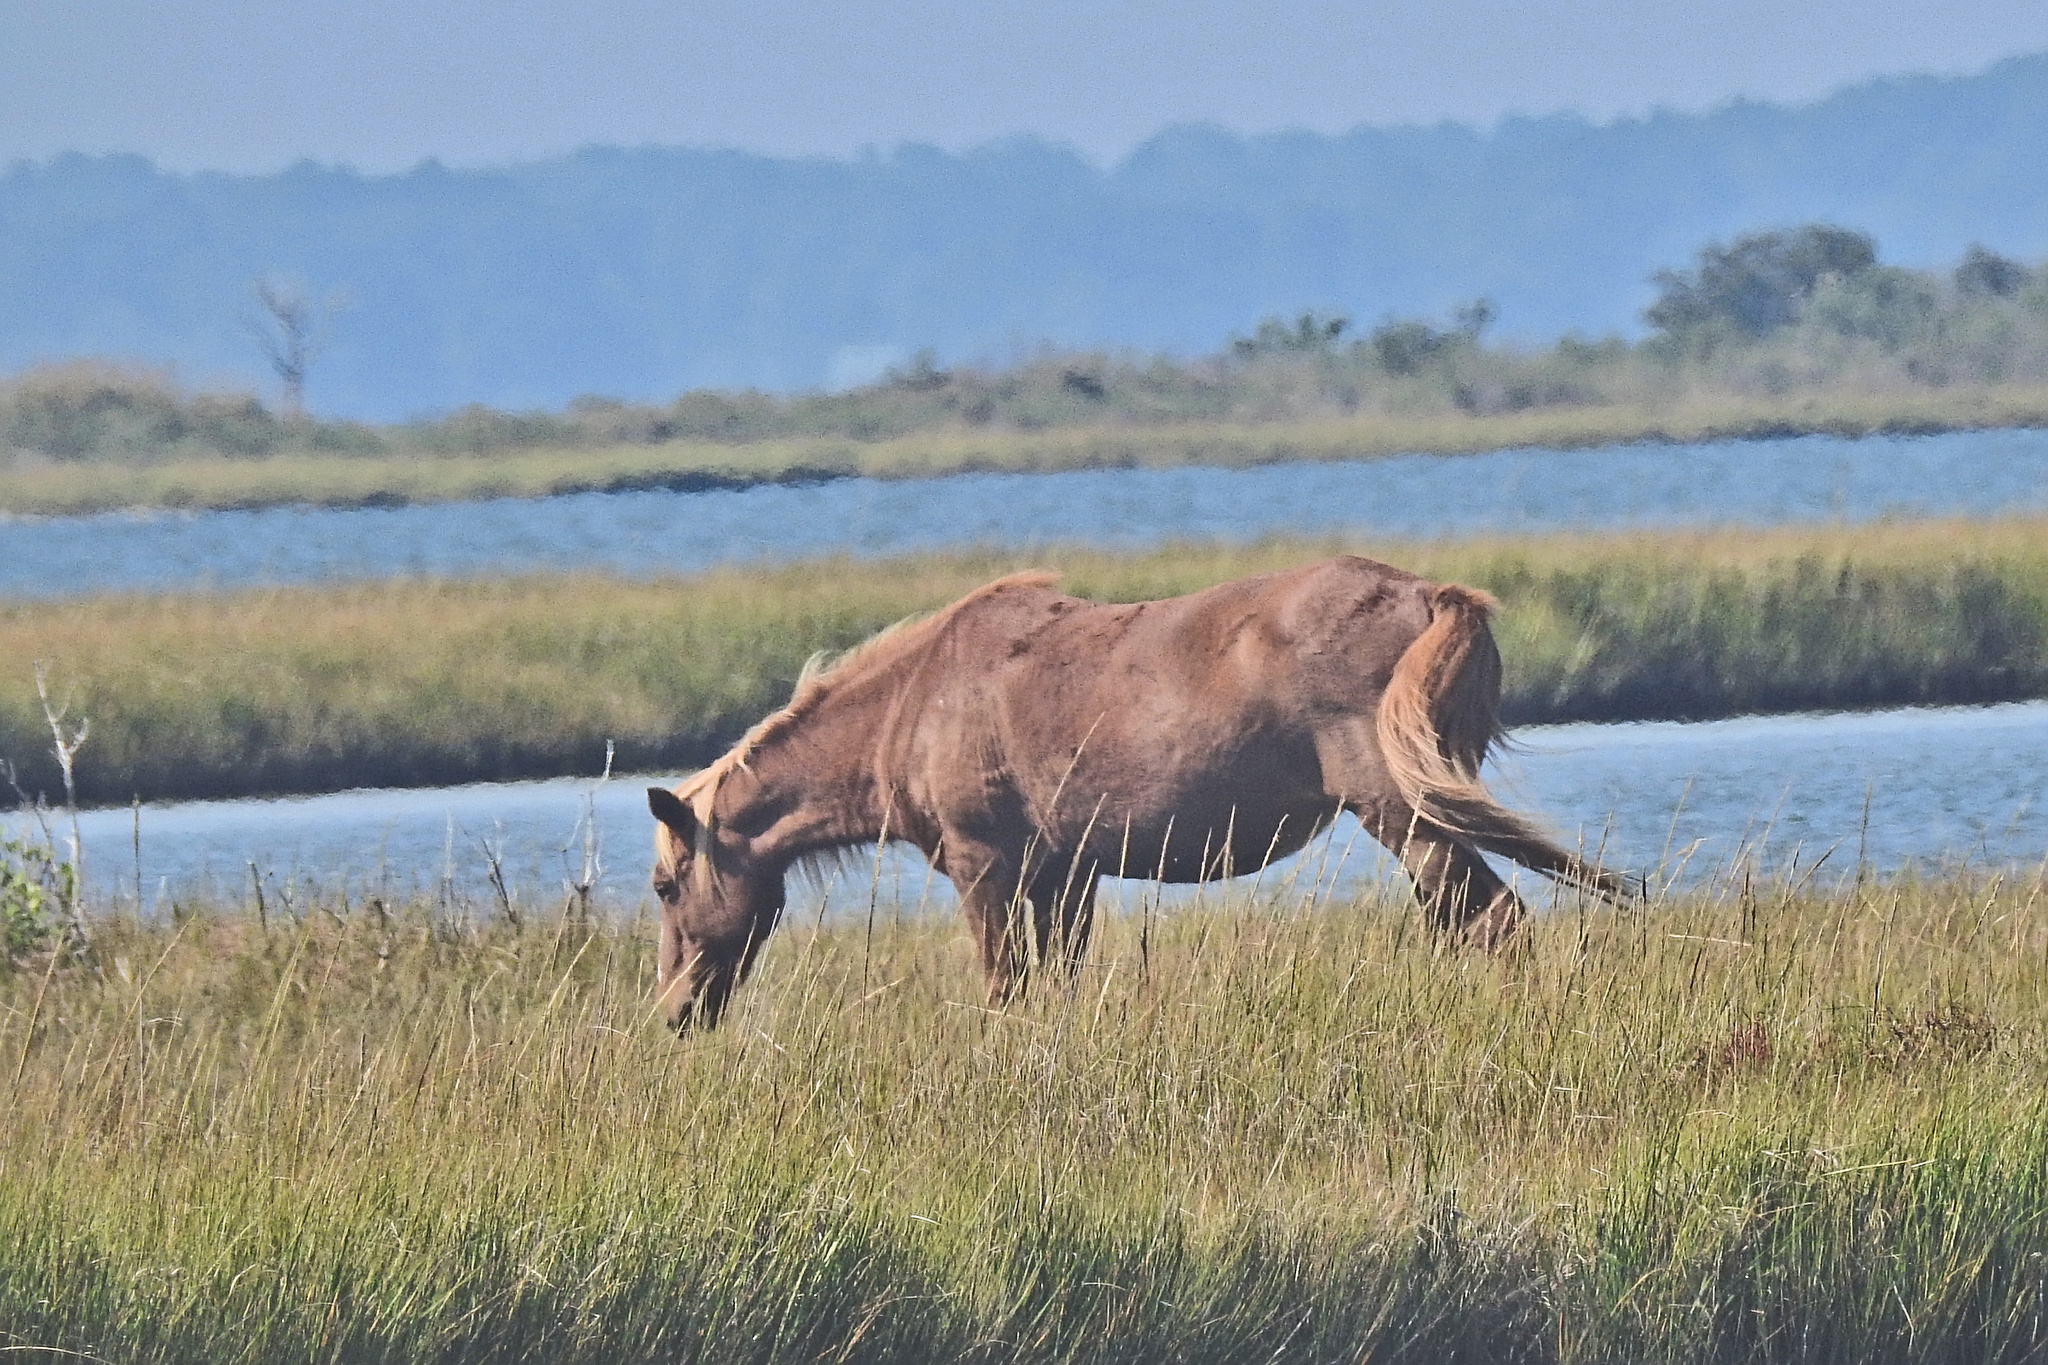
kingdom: Animalia
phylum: Chordata
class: Mammalia
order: Perissodactyla
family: Equidae
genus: Equus
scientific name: Equus caballus
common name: Horse
